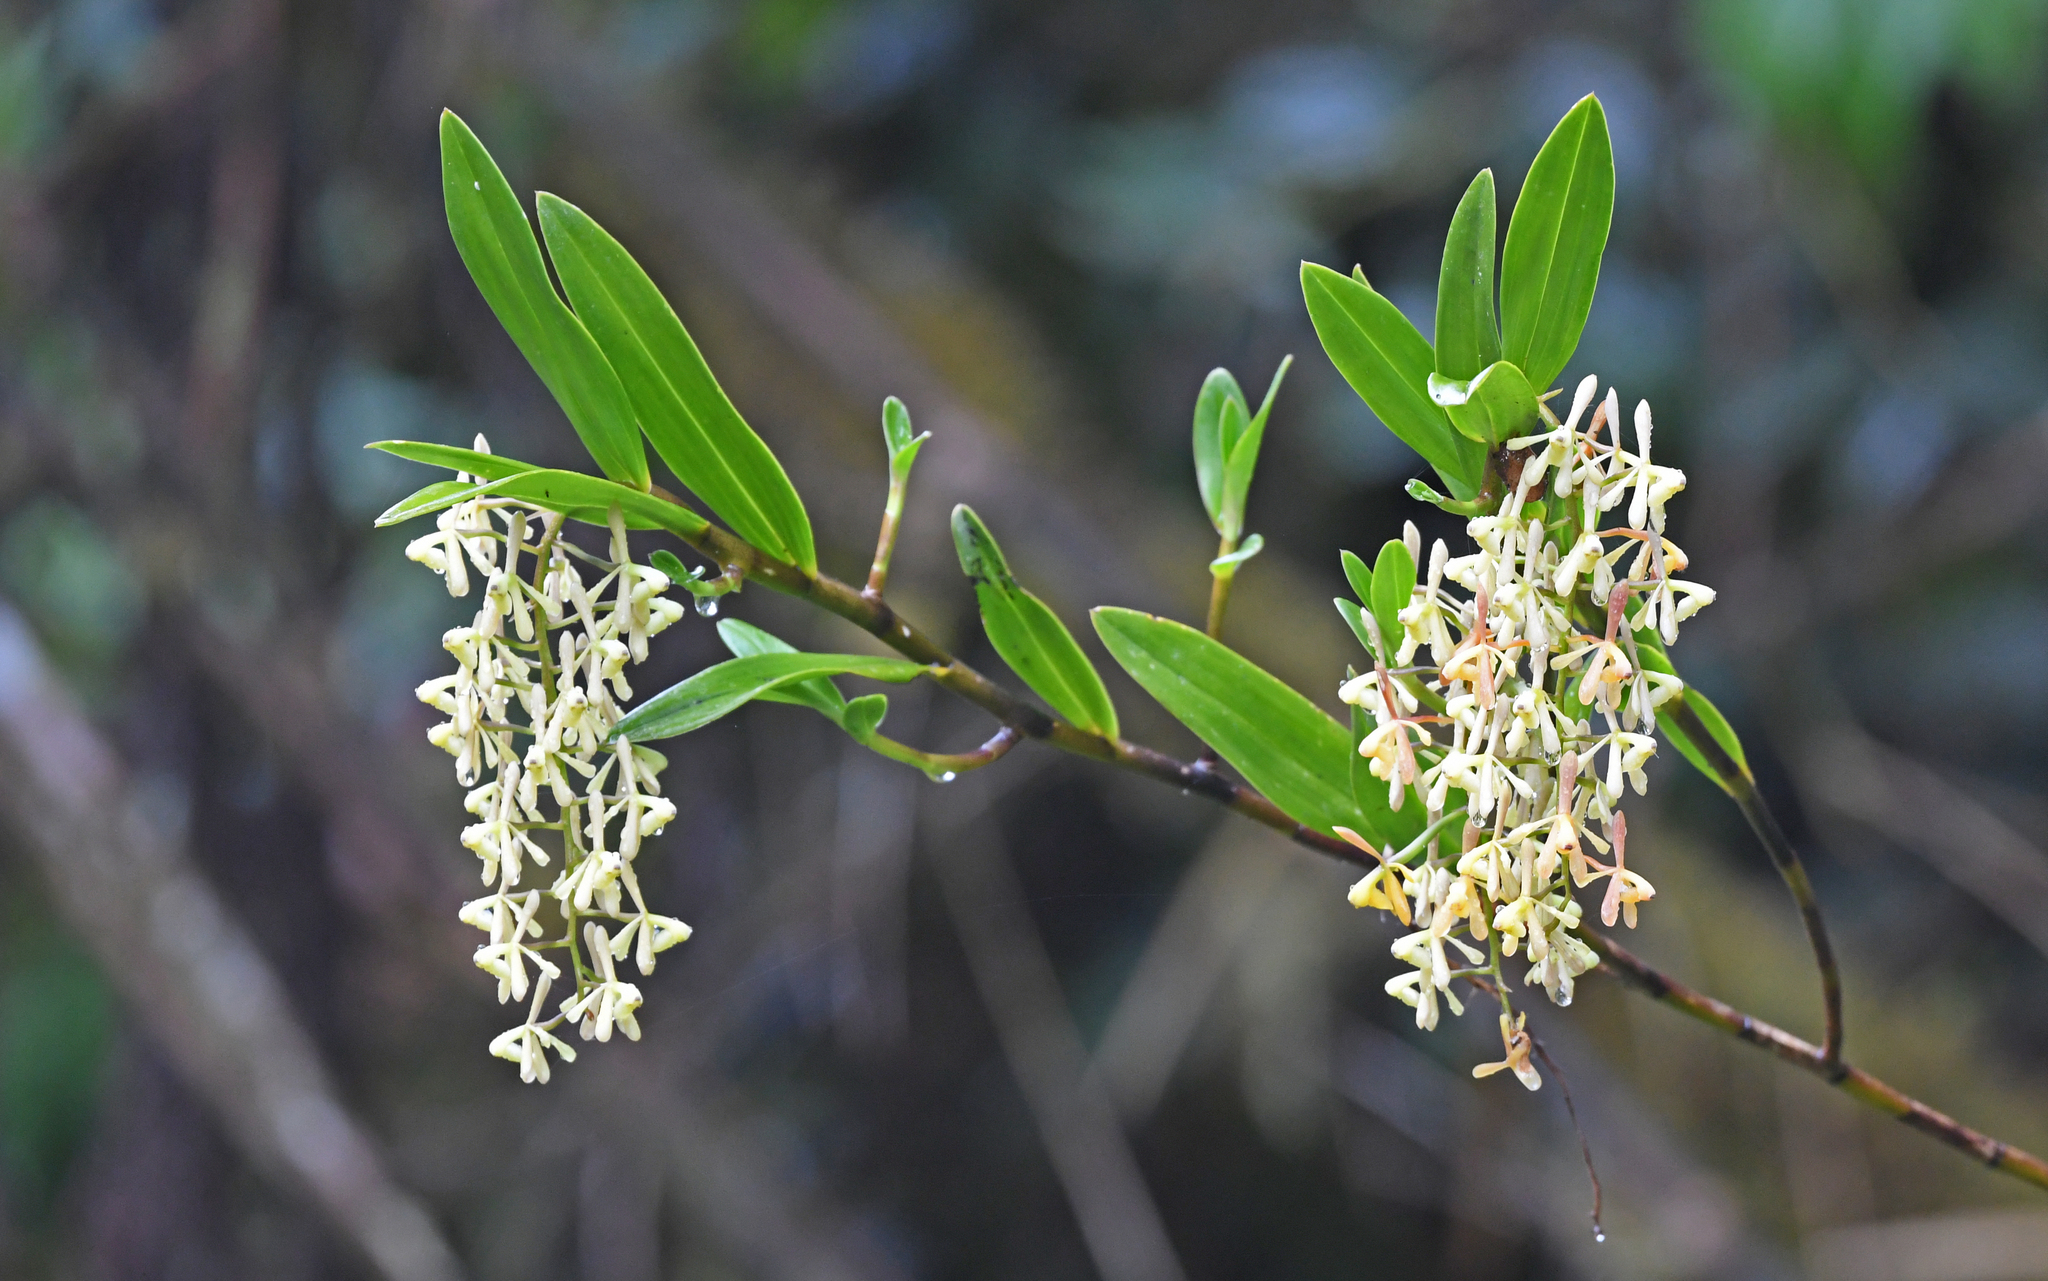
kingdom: Plantae
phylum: Tracheophyta
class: Liliopsida
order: Asparagales
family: Orchidaceae
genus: Epidendrum
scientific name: Epidendrum erosum
